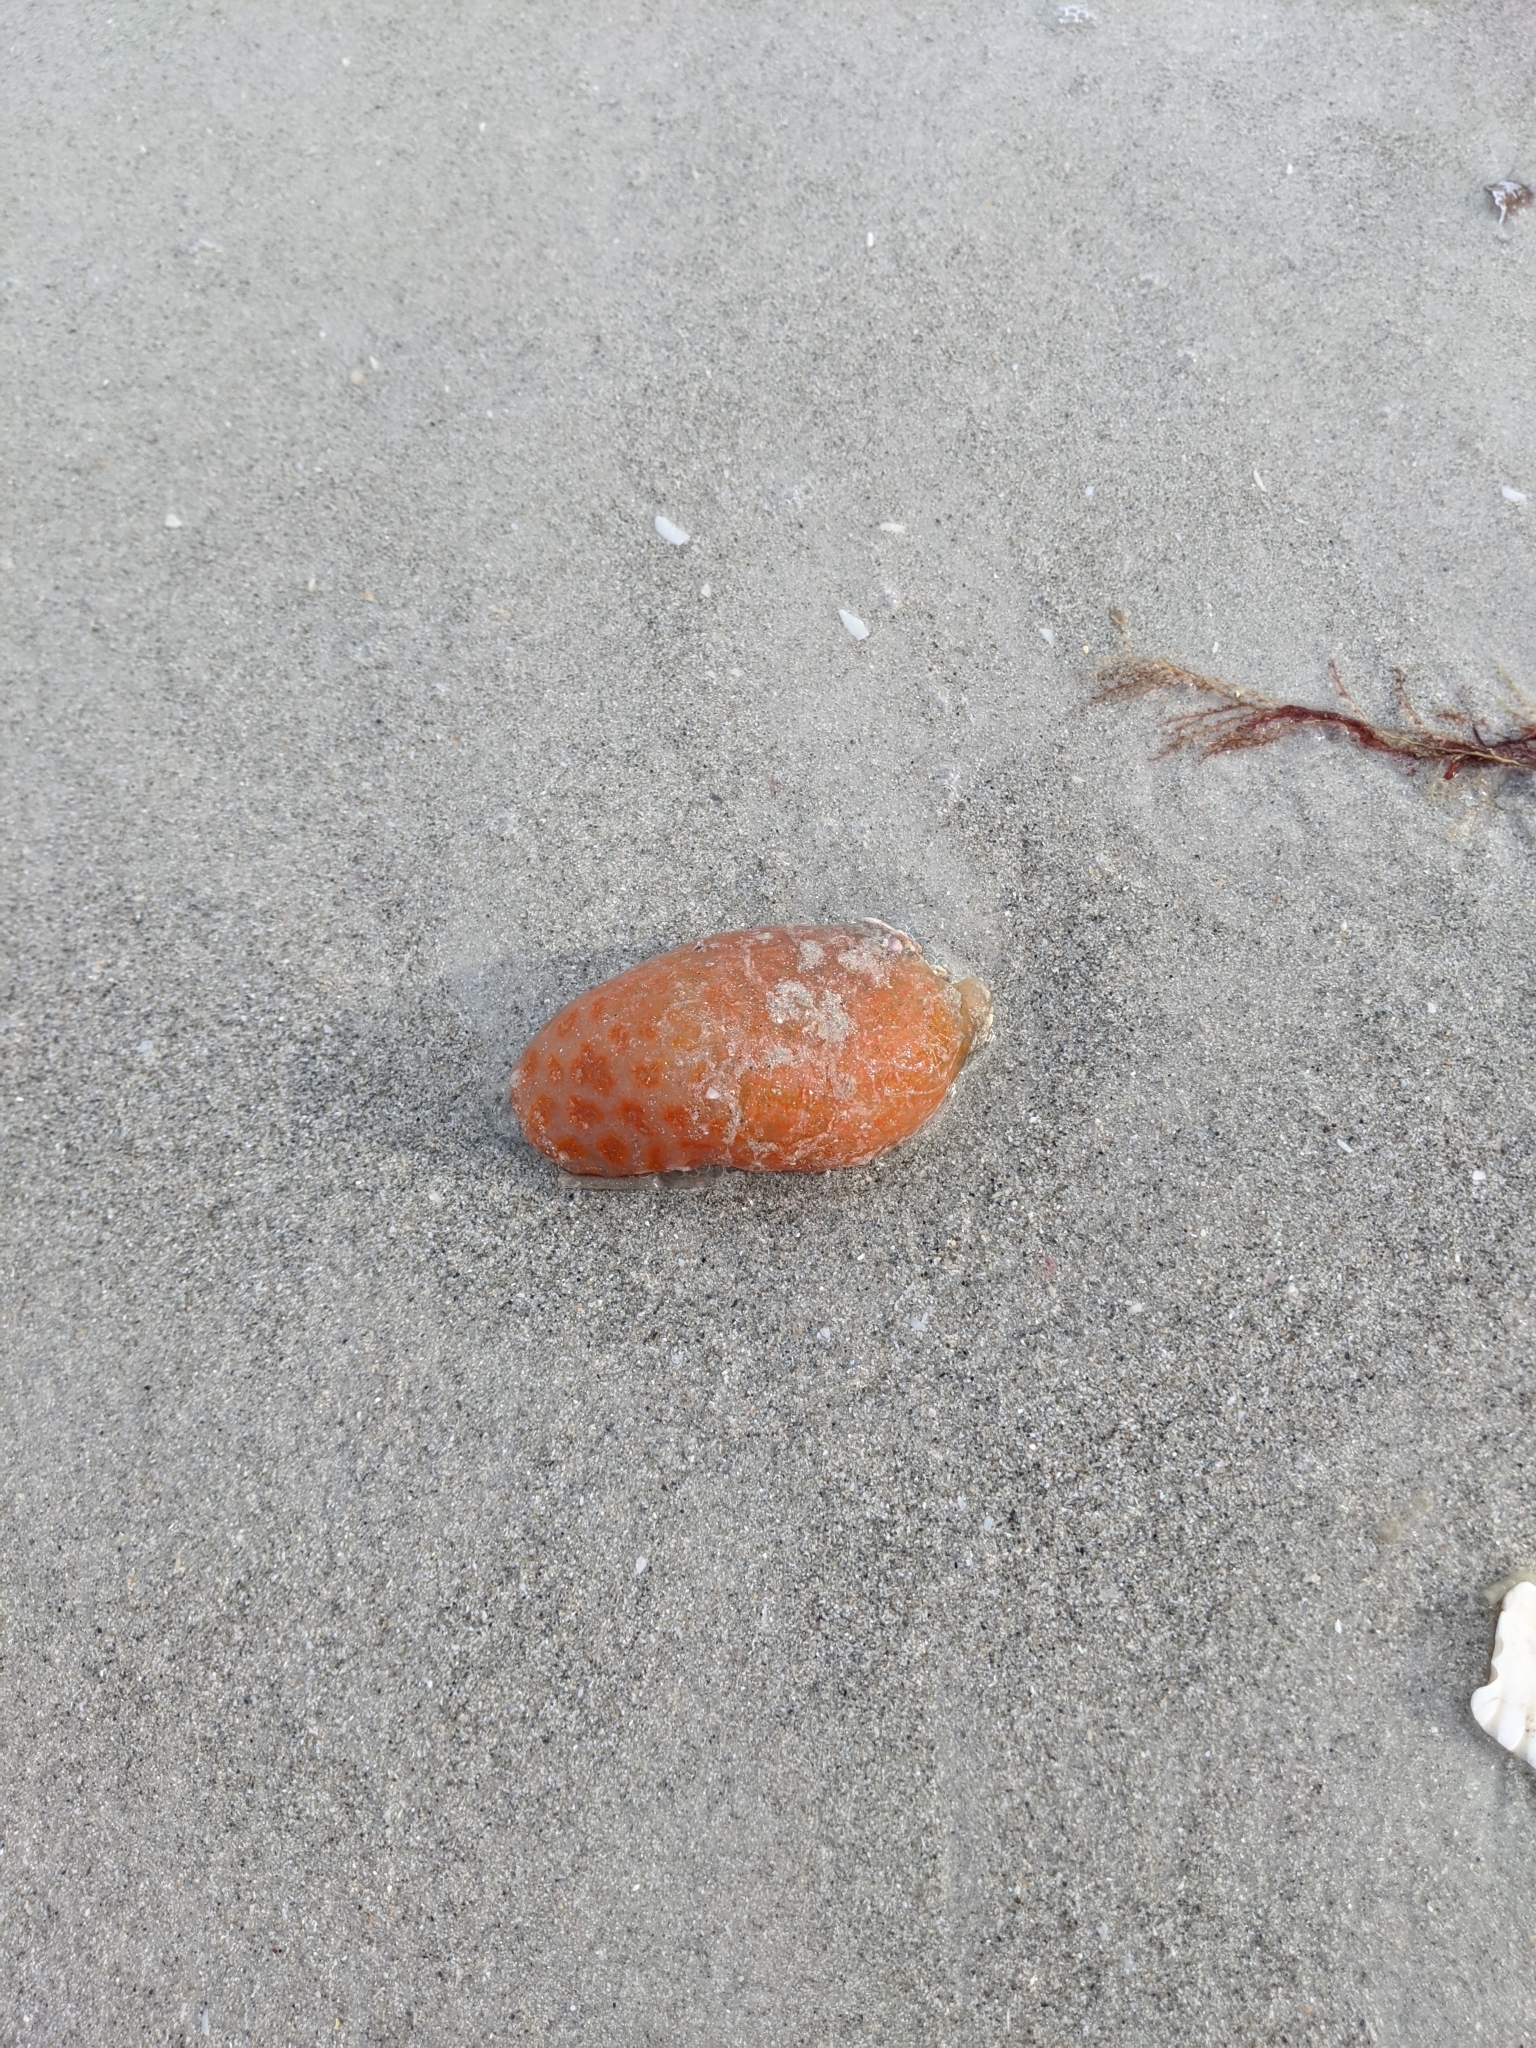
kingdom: Animalia
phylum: Chordata
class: Ascidiacea
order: Aplousobranchia
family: Polyclinidae
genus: Aplidium
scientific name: Aplidium stellatum
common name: Atlantic sea pork
